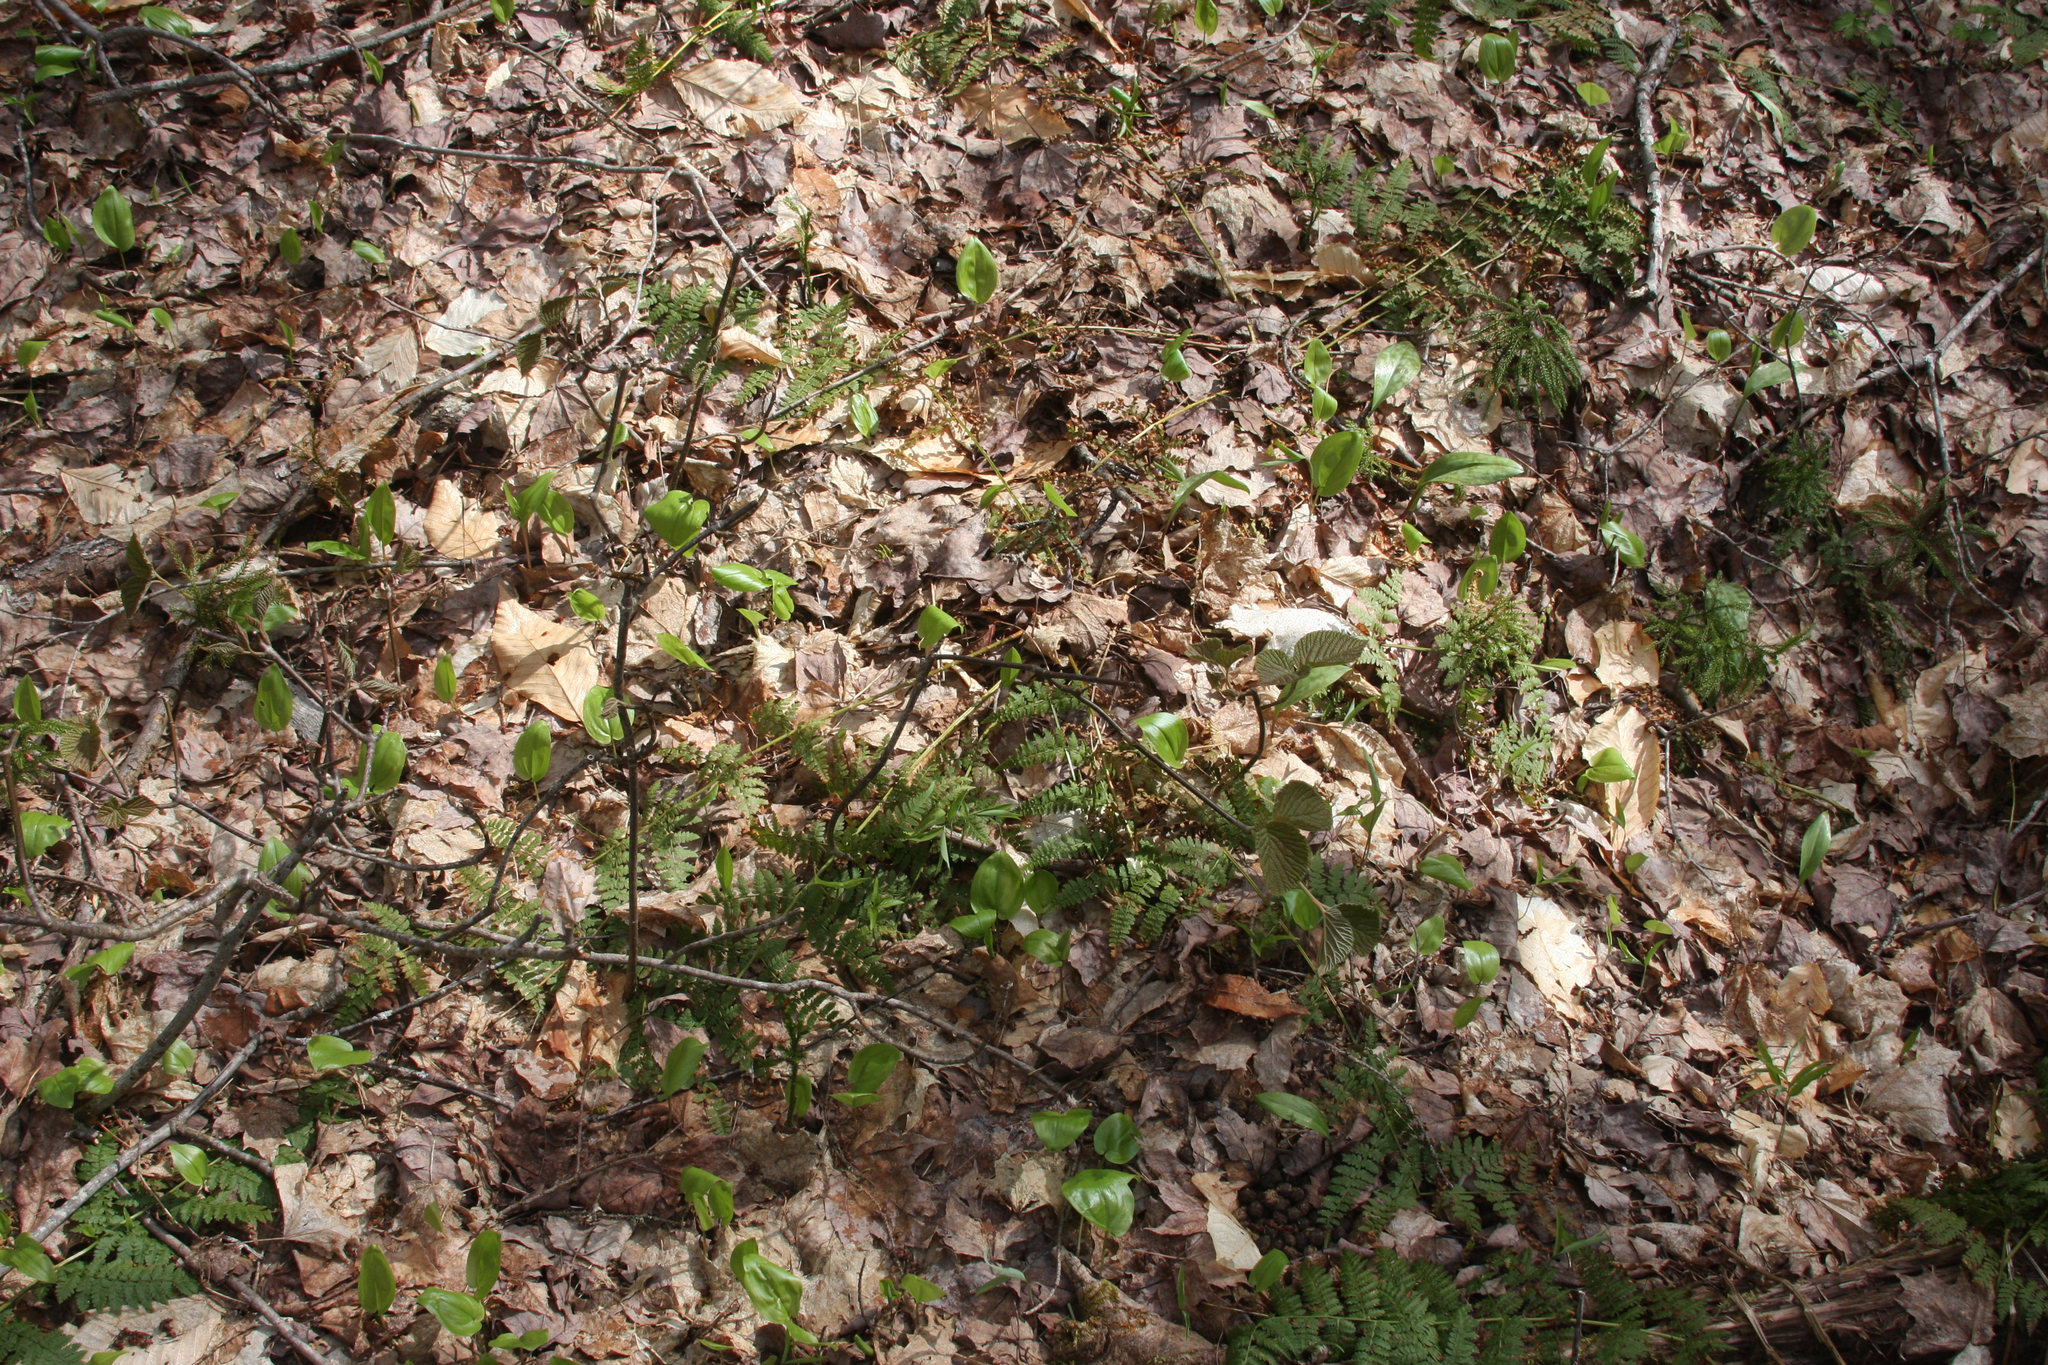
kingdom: Plantae
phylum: Tracheophyta
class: Magnoliopsida
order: Dipsacales
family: Viburnaceae
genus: Viburnum
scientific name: Viburnum lantanoides
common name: Hobblebush
